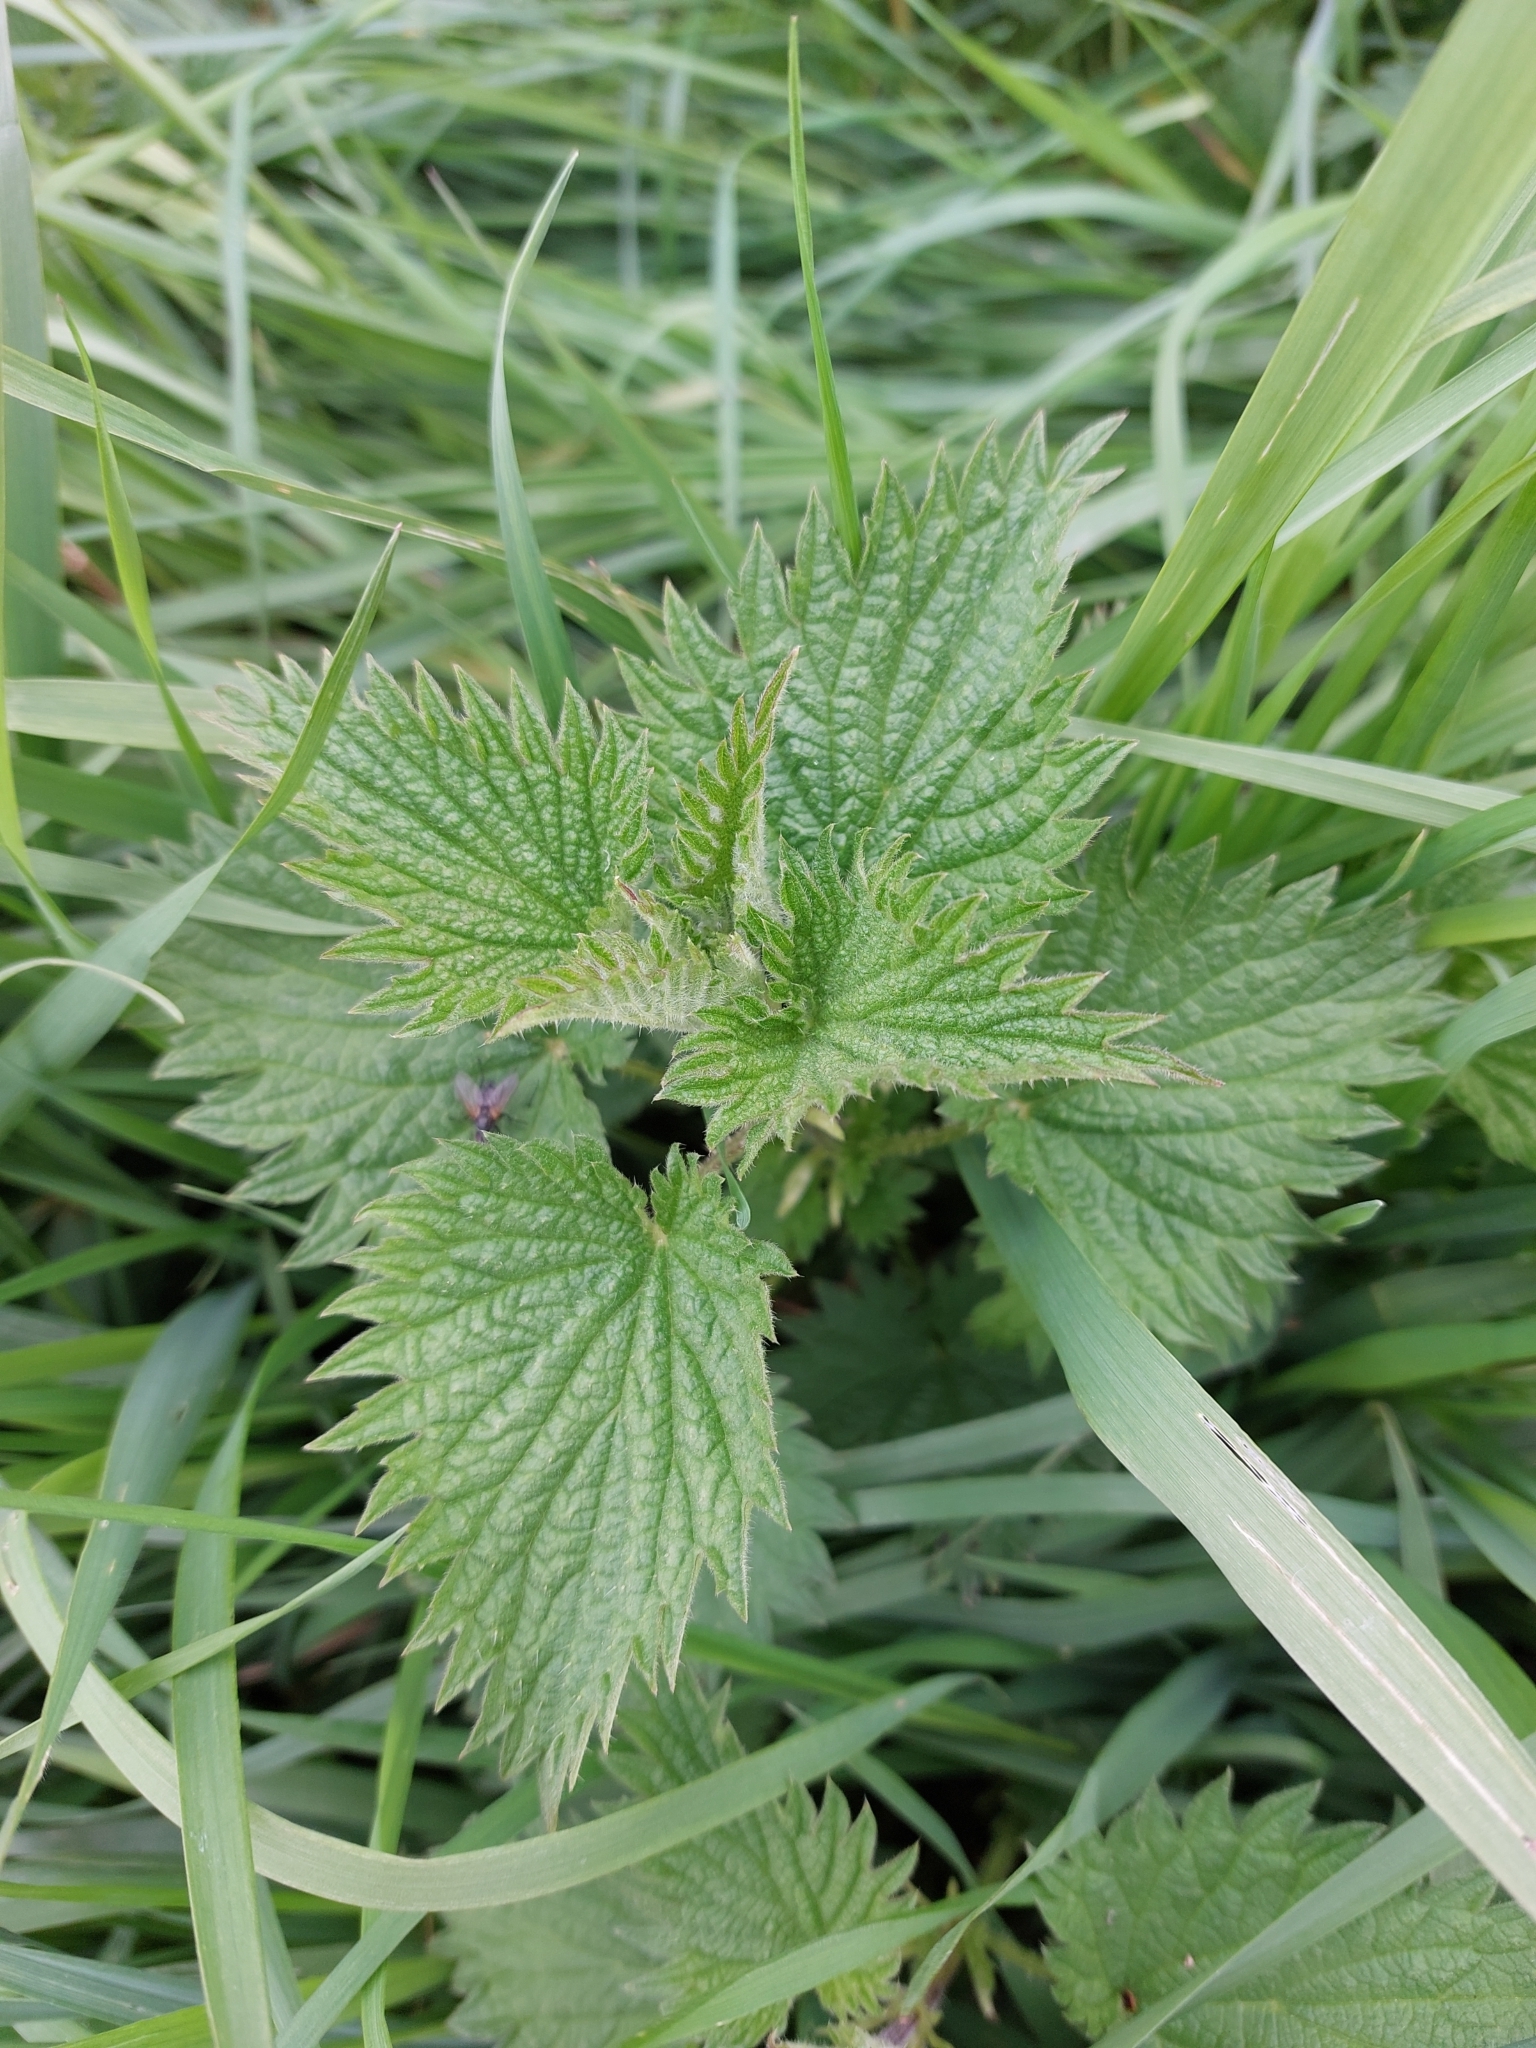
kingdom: Plantae
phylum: Tracheophyta
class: Magnoliopsida
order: Rosales
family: Urticaceae
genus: Urtica
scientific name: Urtica dioica
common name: Common nettle
